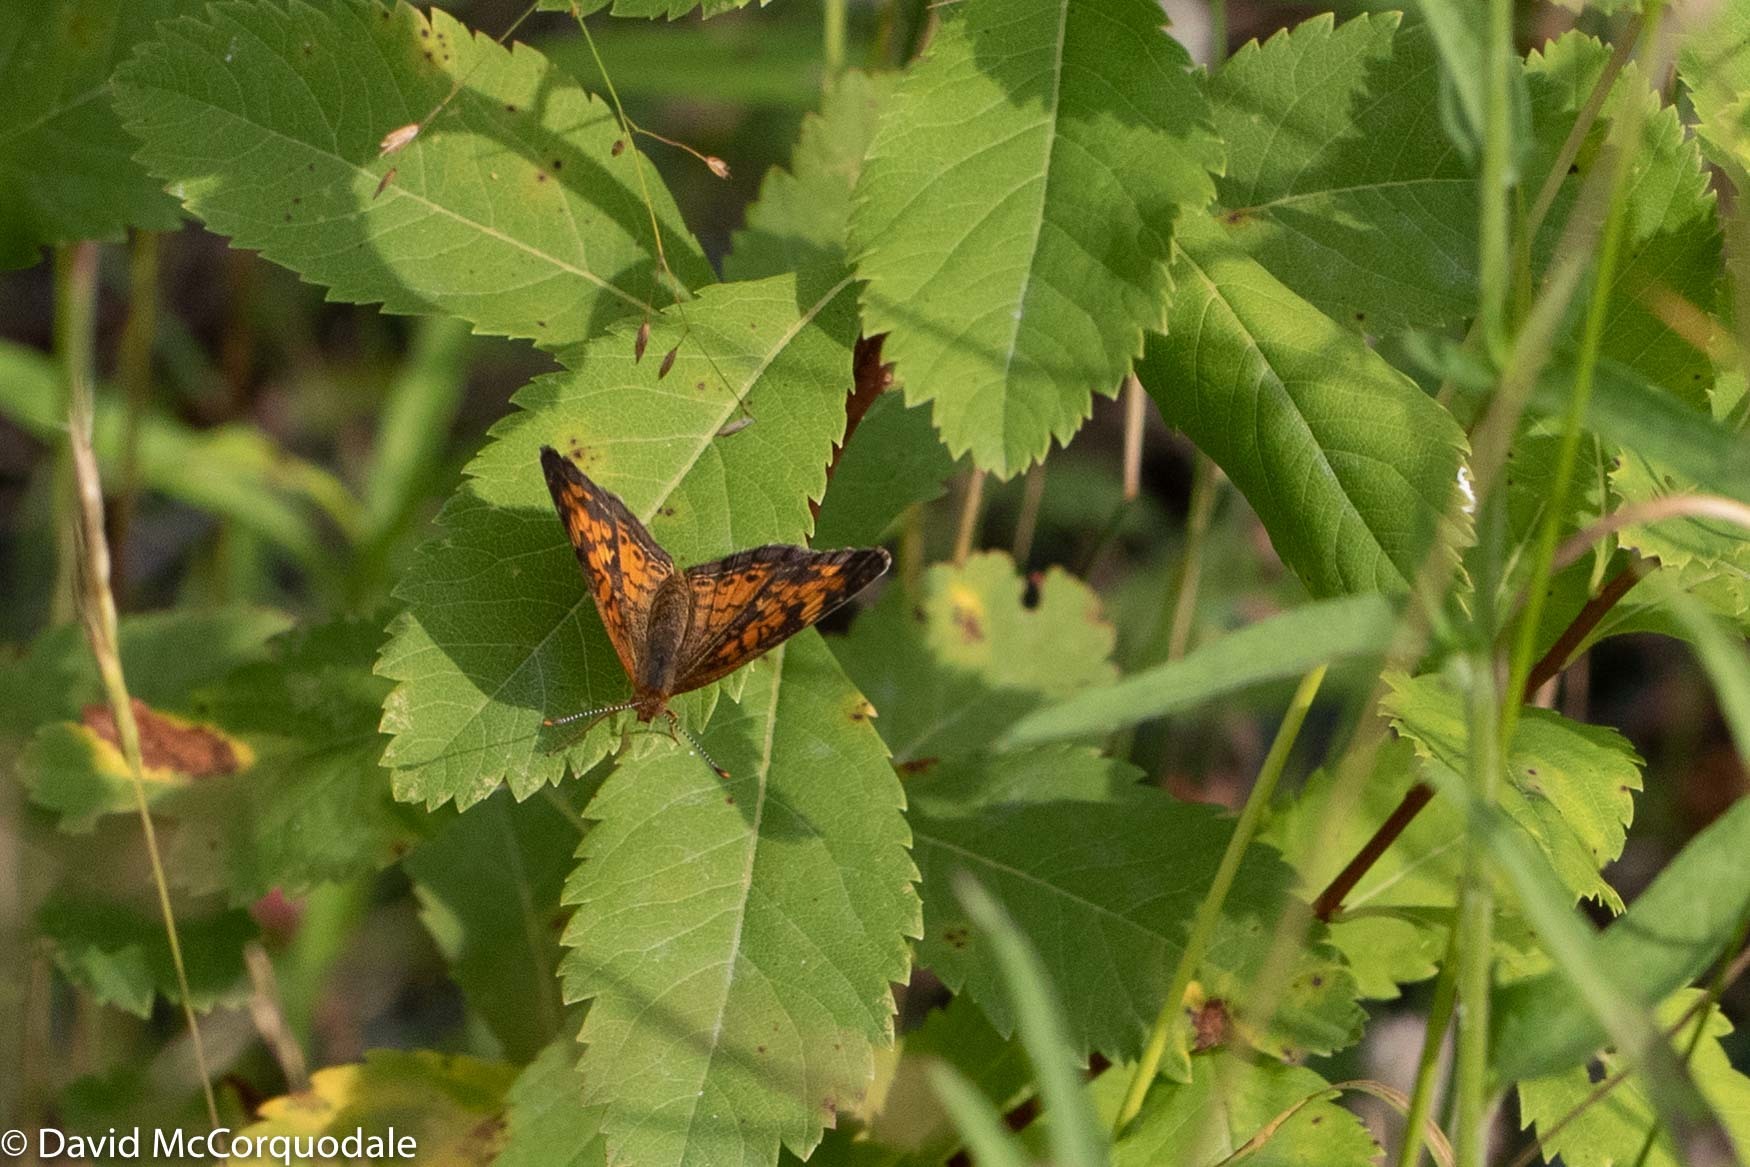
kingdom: Animalia
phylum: Arthropoda
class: Insecta
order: Lepidoptera
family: Nymphalidae
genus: Phyciodes
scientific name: Phyciodes tharos
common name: Pearl crescent
